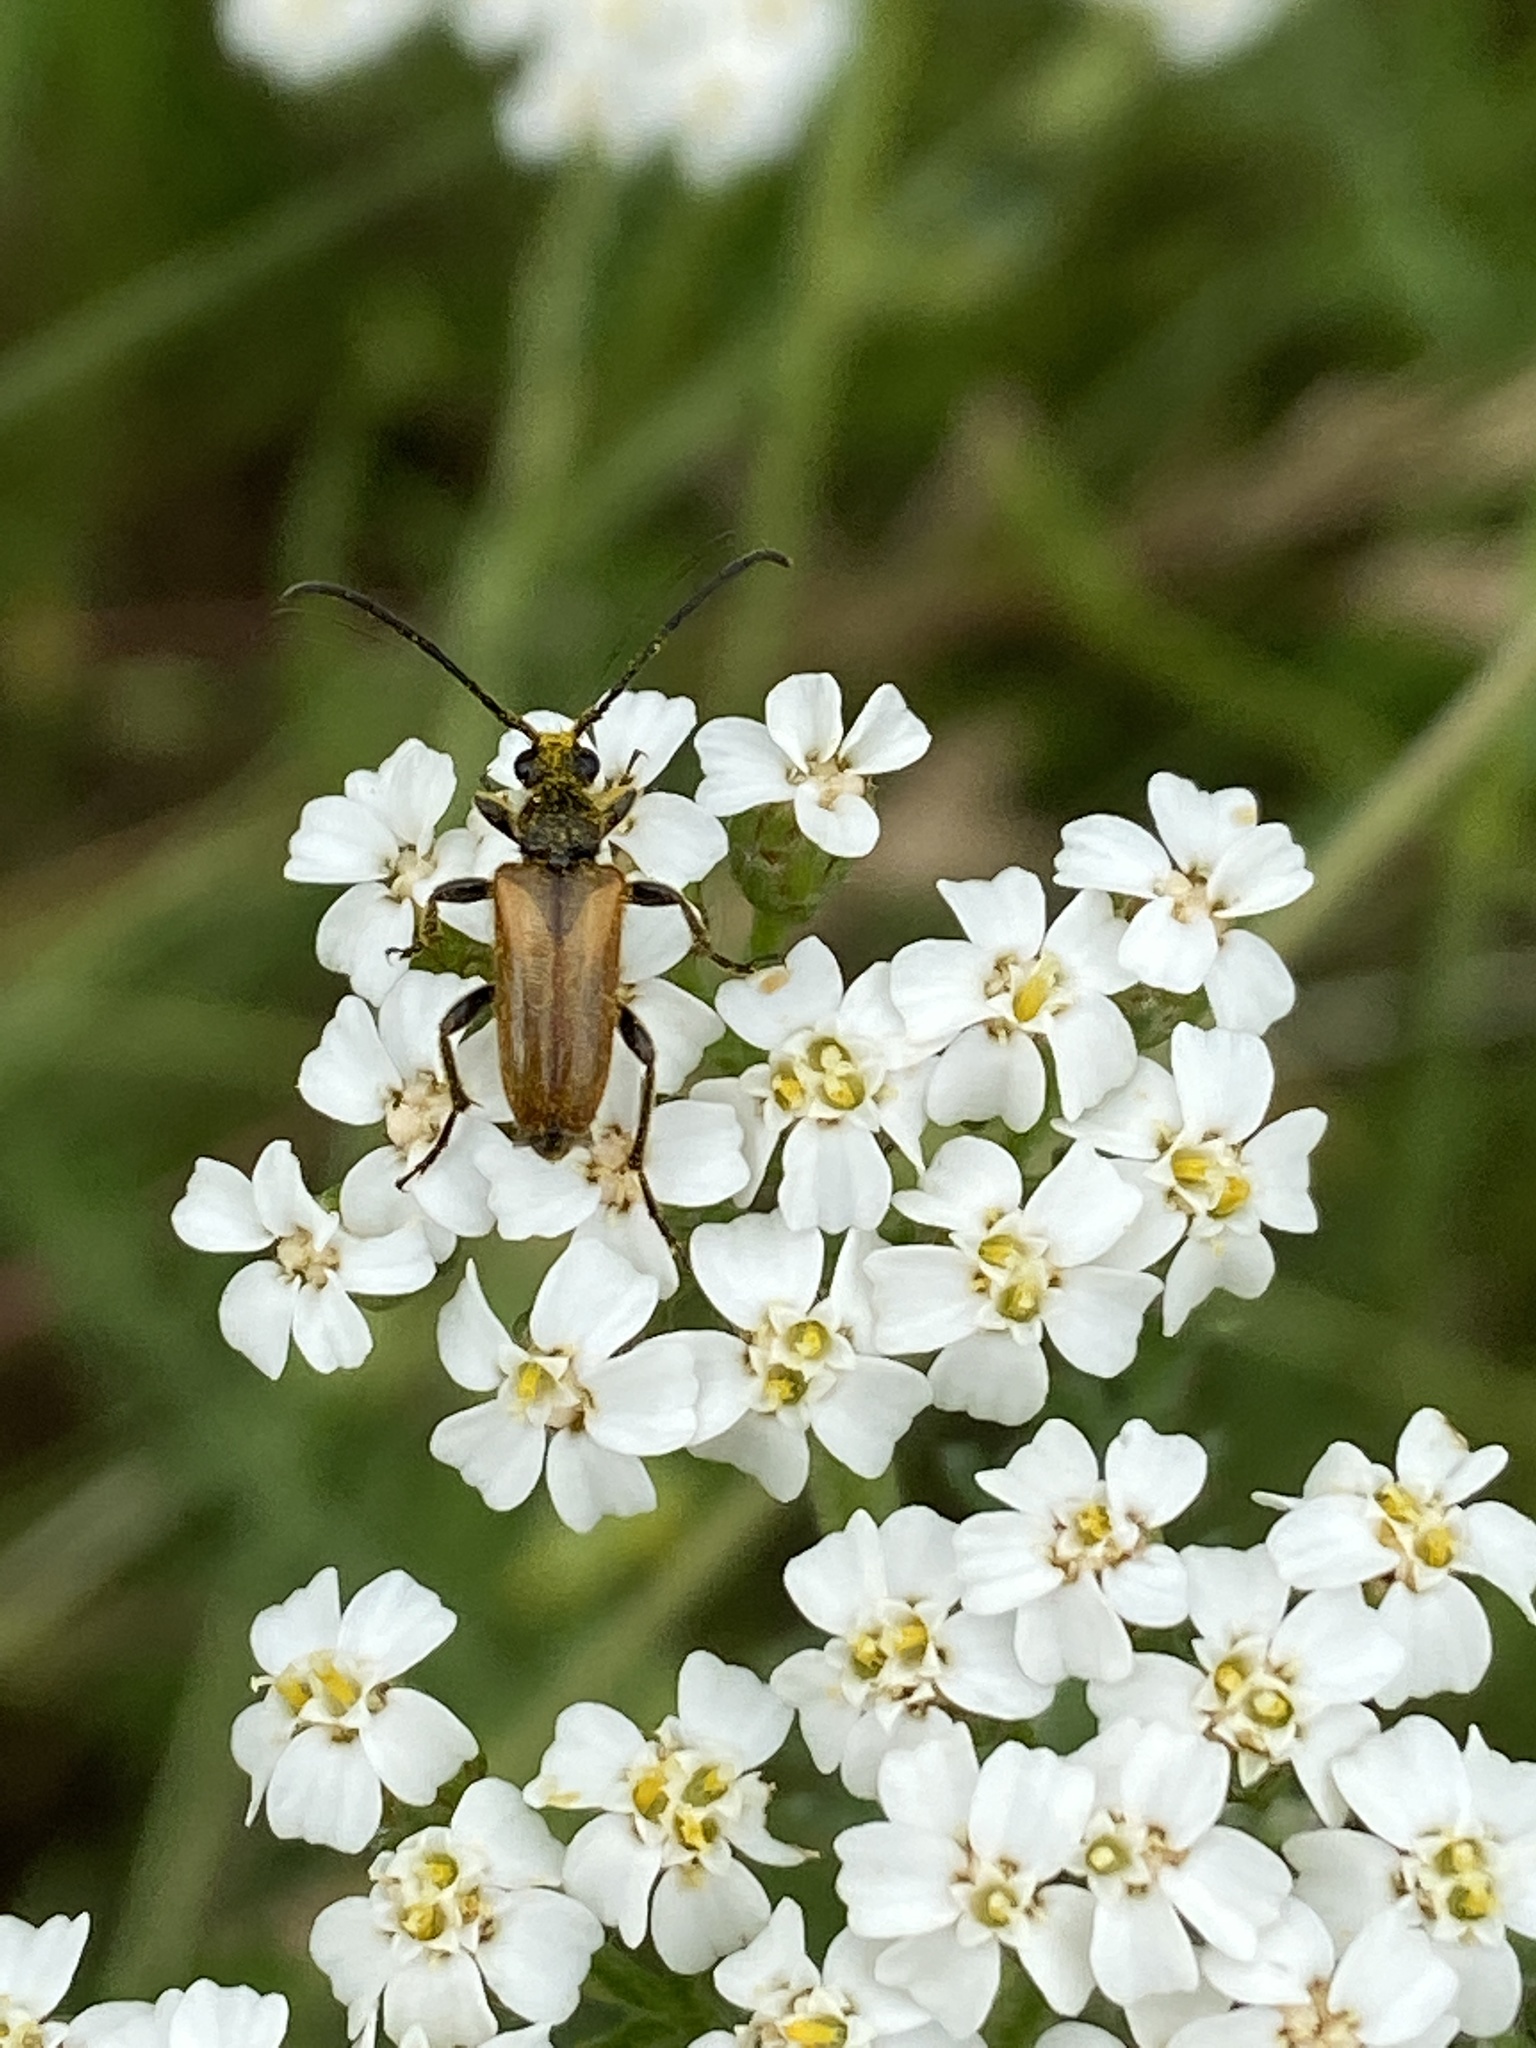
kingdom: Animalia
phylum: Arthropoda
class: Insecta
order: Coleoptera
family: Cerambycidae
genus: Pseudovadonia
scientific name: Pseudovadonia livida
